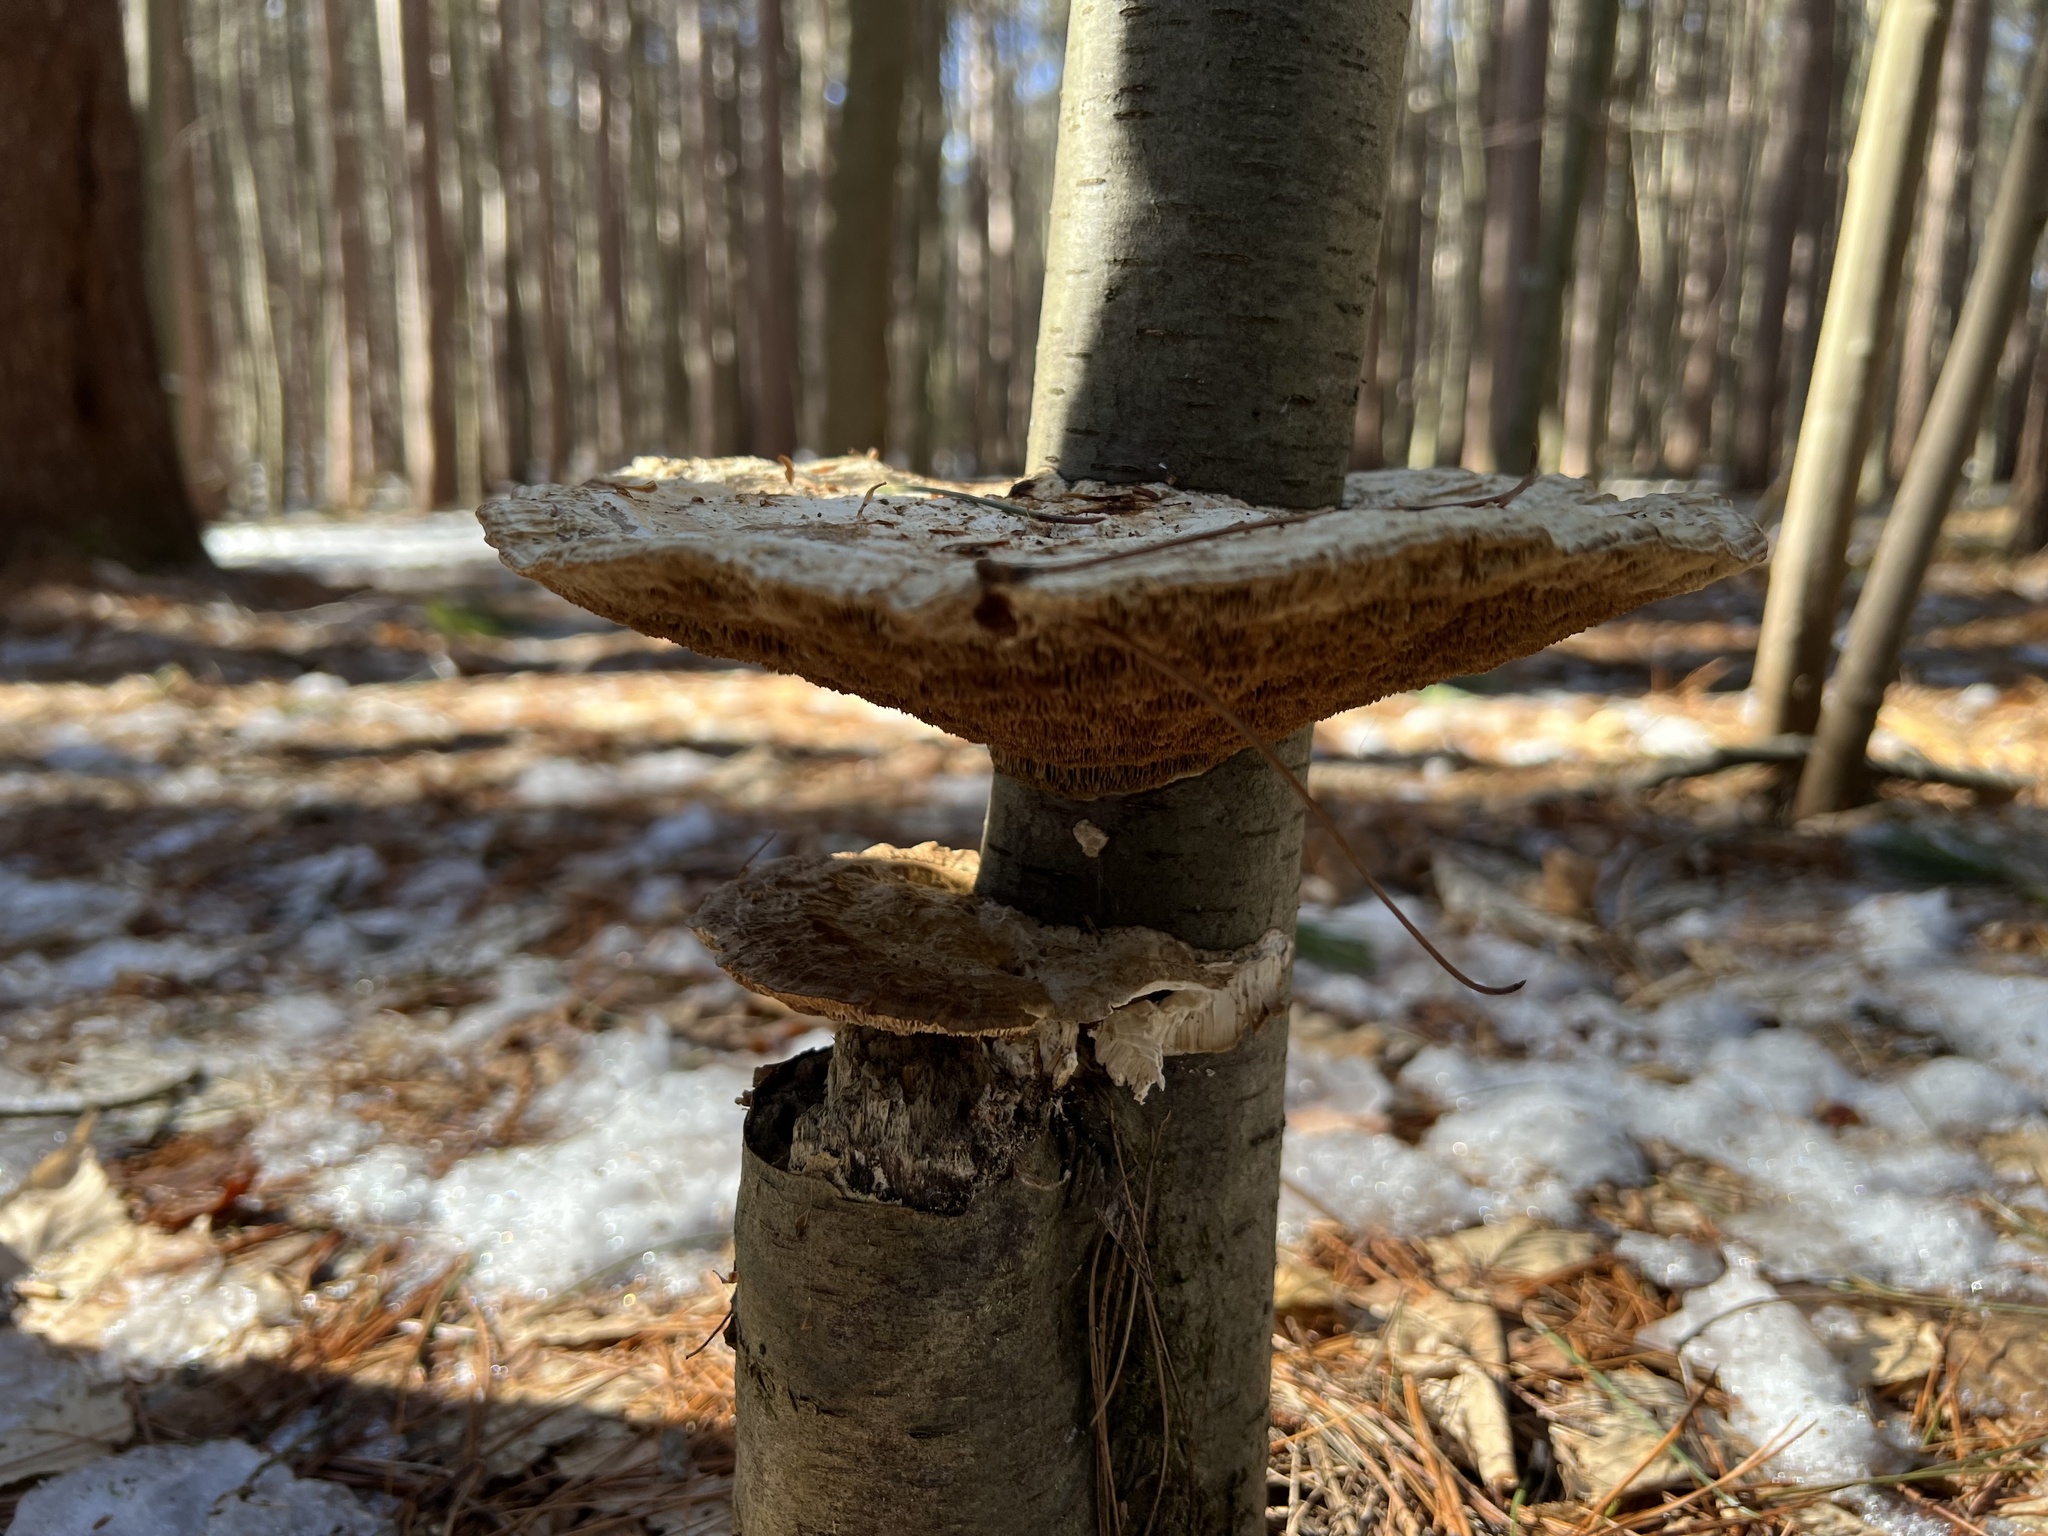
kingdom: Fungi
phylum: Basidiomycota
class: Agaricomycetes
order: Polyporales
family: Polyporaceae
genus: Daedaleopsis
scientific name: Daedaleopsis confragosa
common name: Blushing bracket
